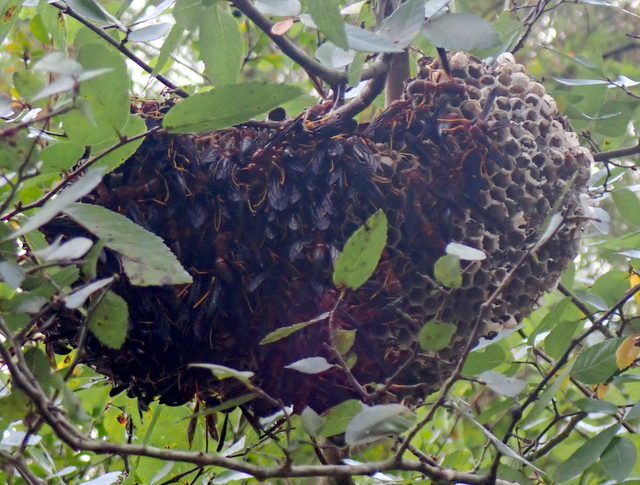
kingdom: Animalia
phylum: Arthropoda
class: Insecta
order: Hymenoptera
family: Eumenidae
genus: Polistes
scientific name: Polistes annularis
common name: Ringed paper wasp
